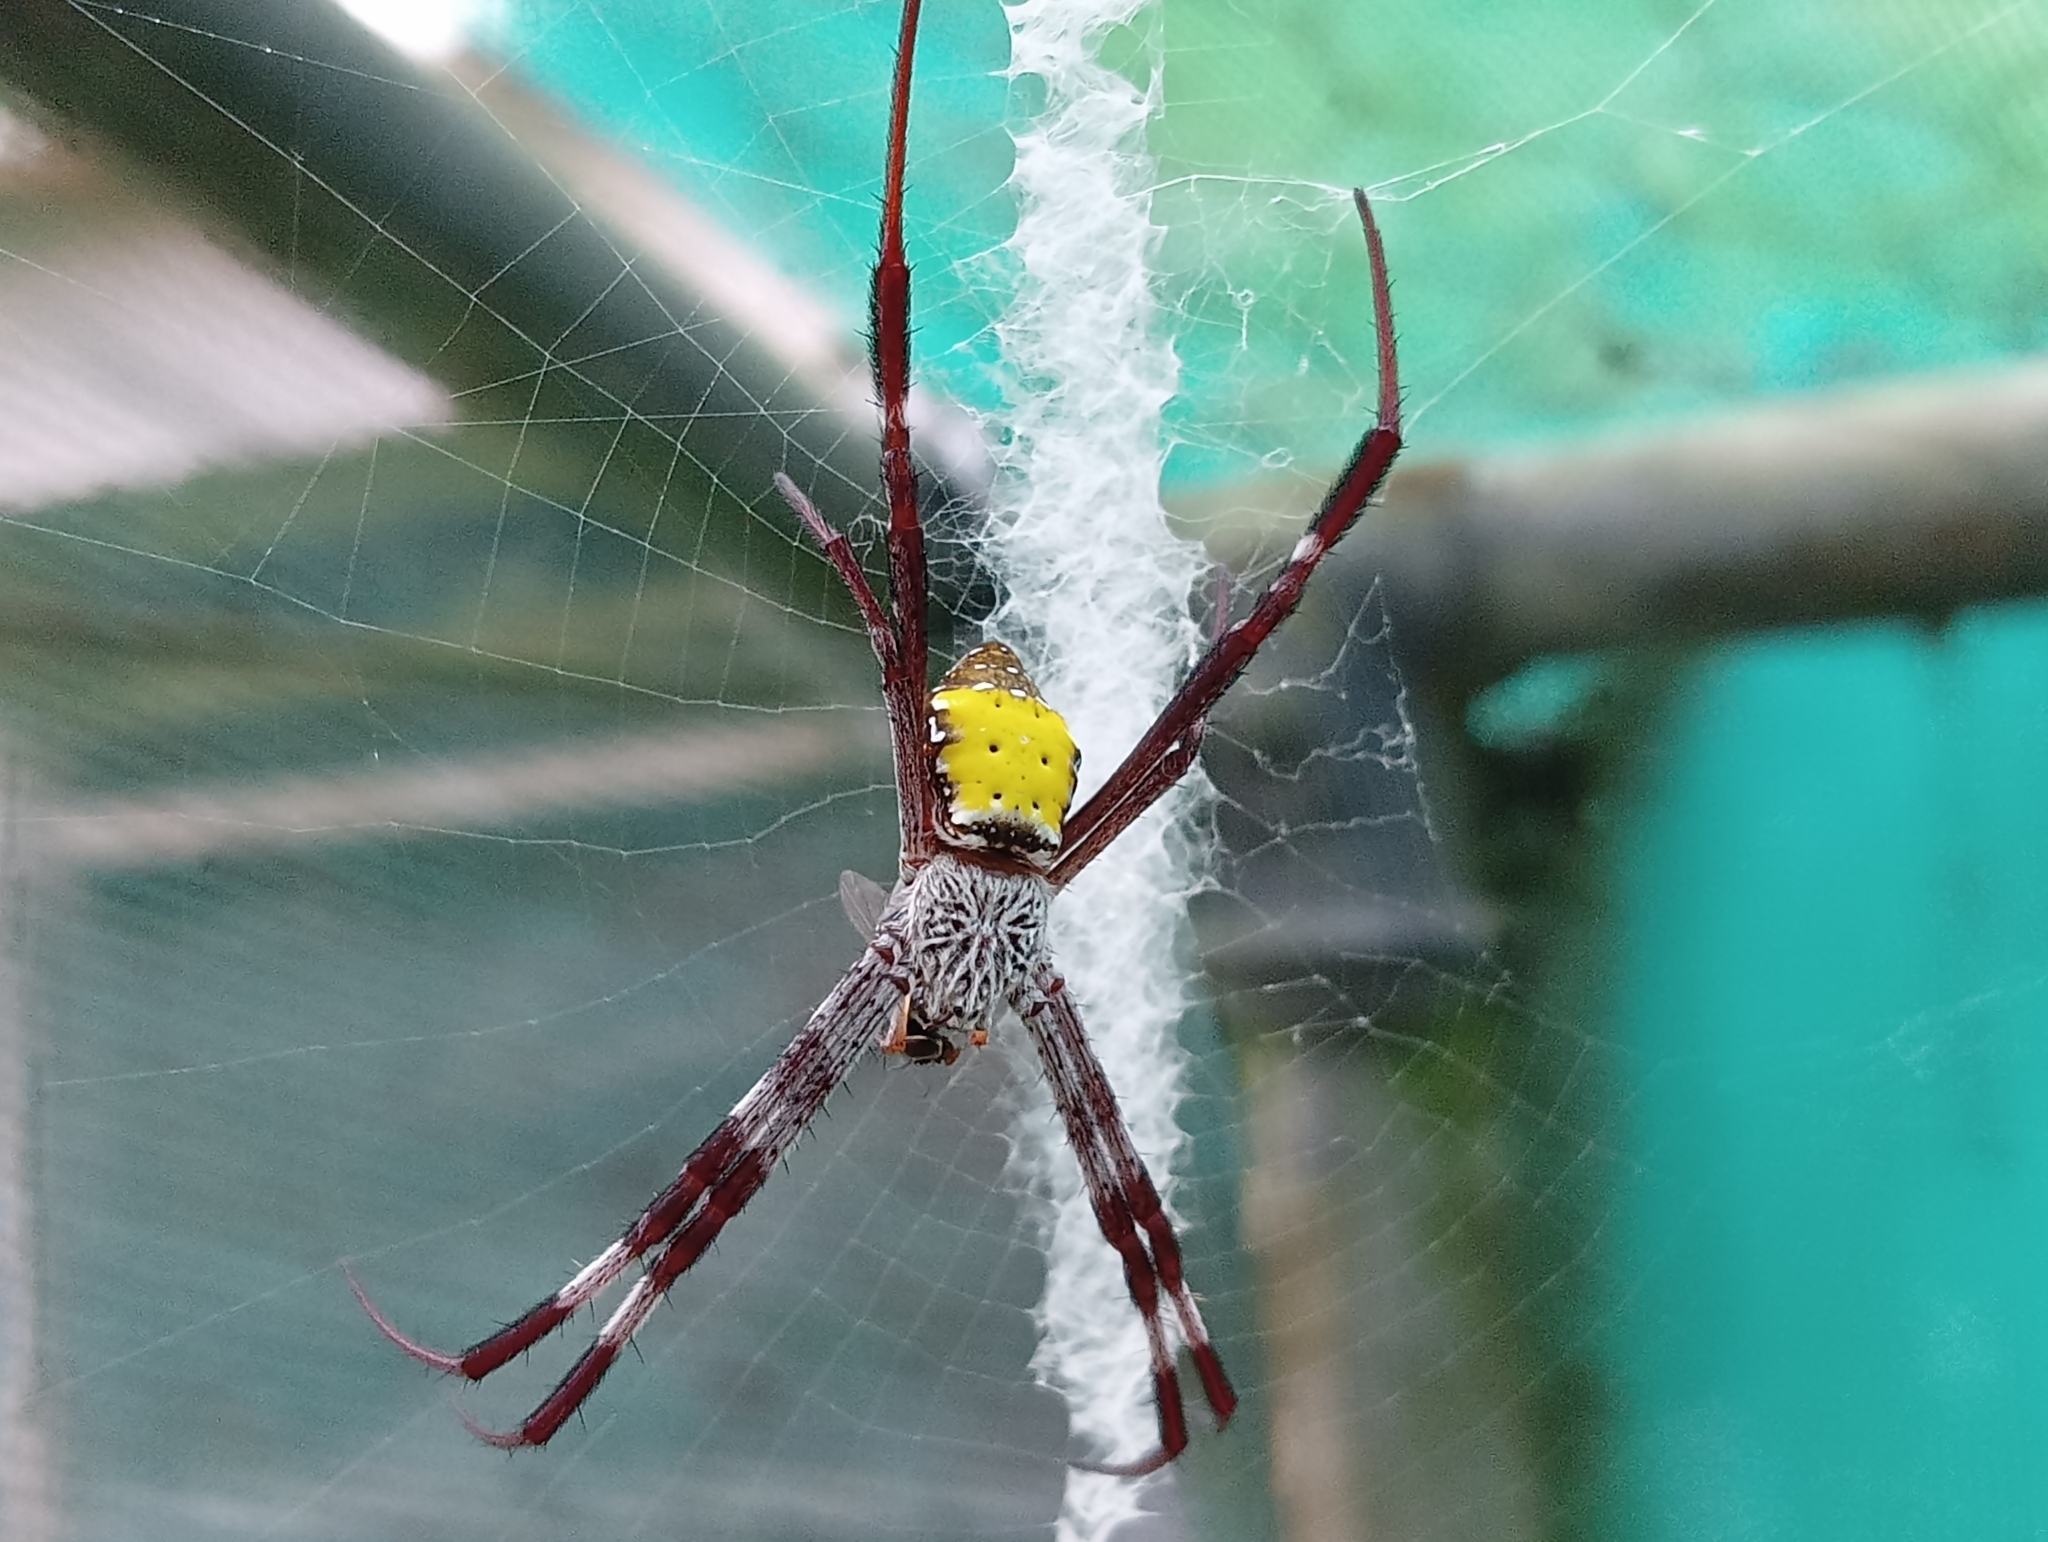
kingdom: Animalia
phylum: Arthropoda
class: Arachnida
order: Araneae
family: Araneidae
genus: Argiope
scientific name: Argiope aetherea
